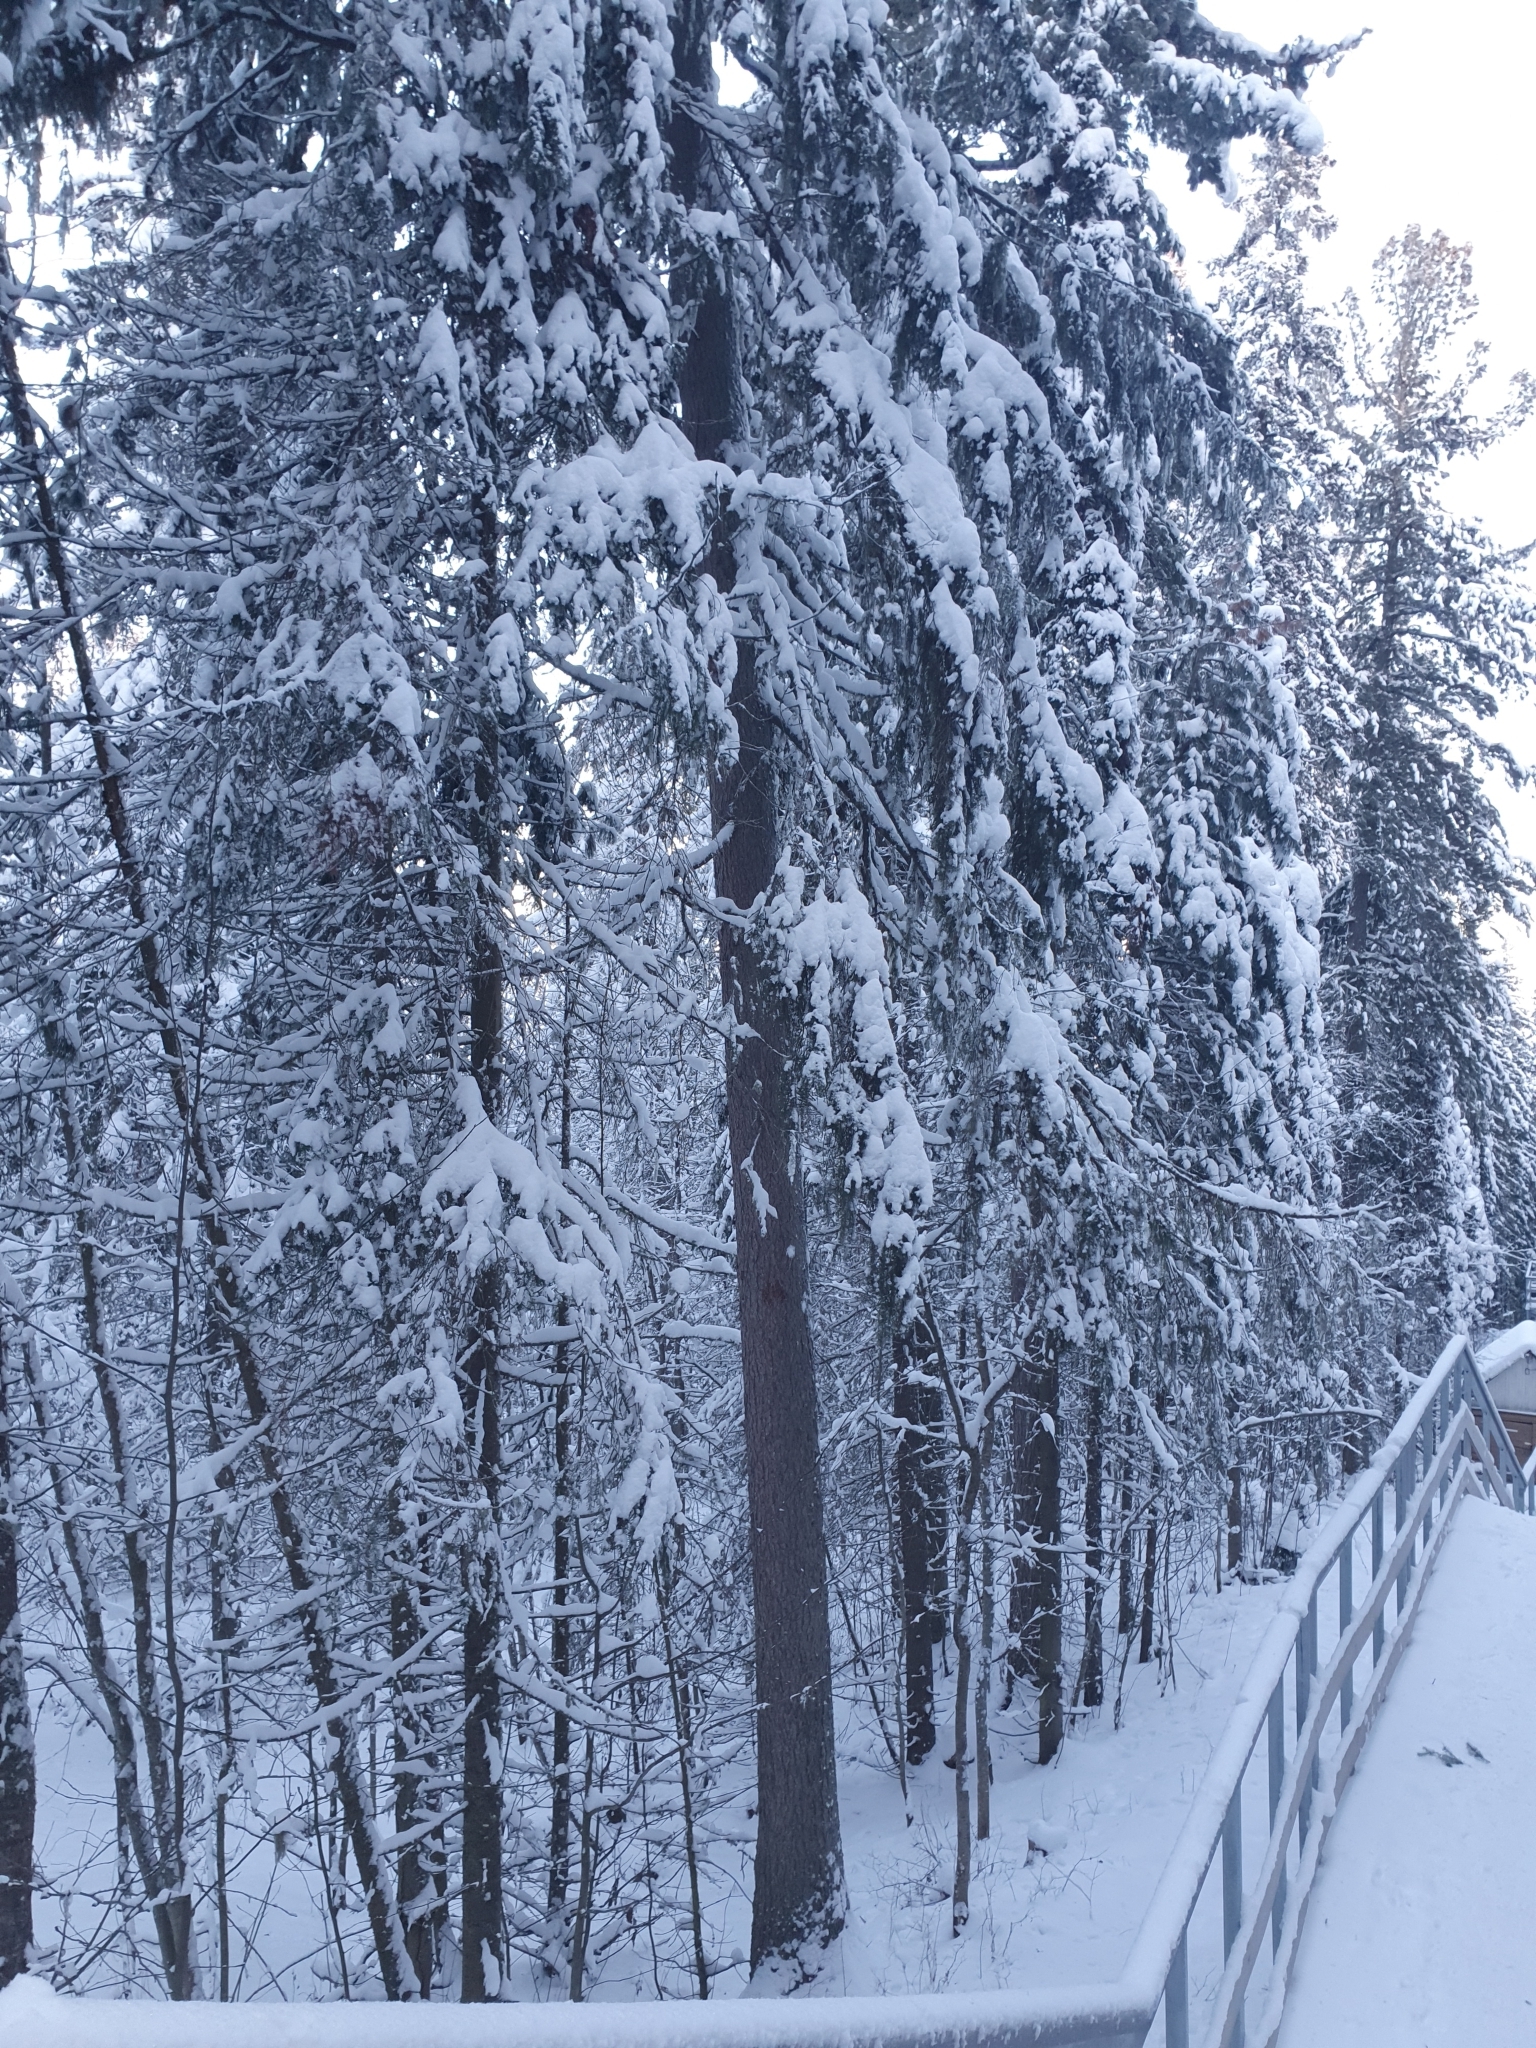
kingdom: Plantae
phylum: Tracheophyta
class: Pinopsida
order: Pinales
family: Pinaceae
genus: Picea
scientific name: Picea obovata
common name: Siberian spruce
